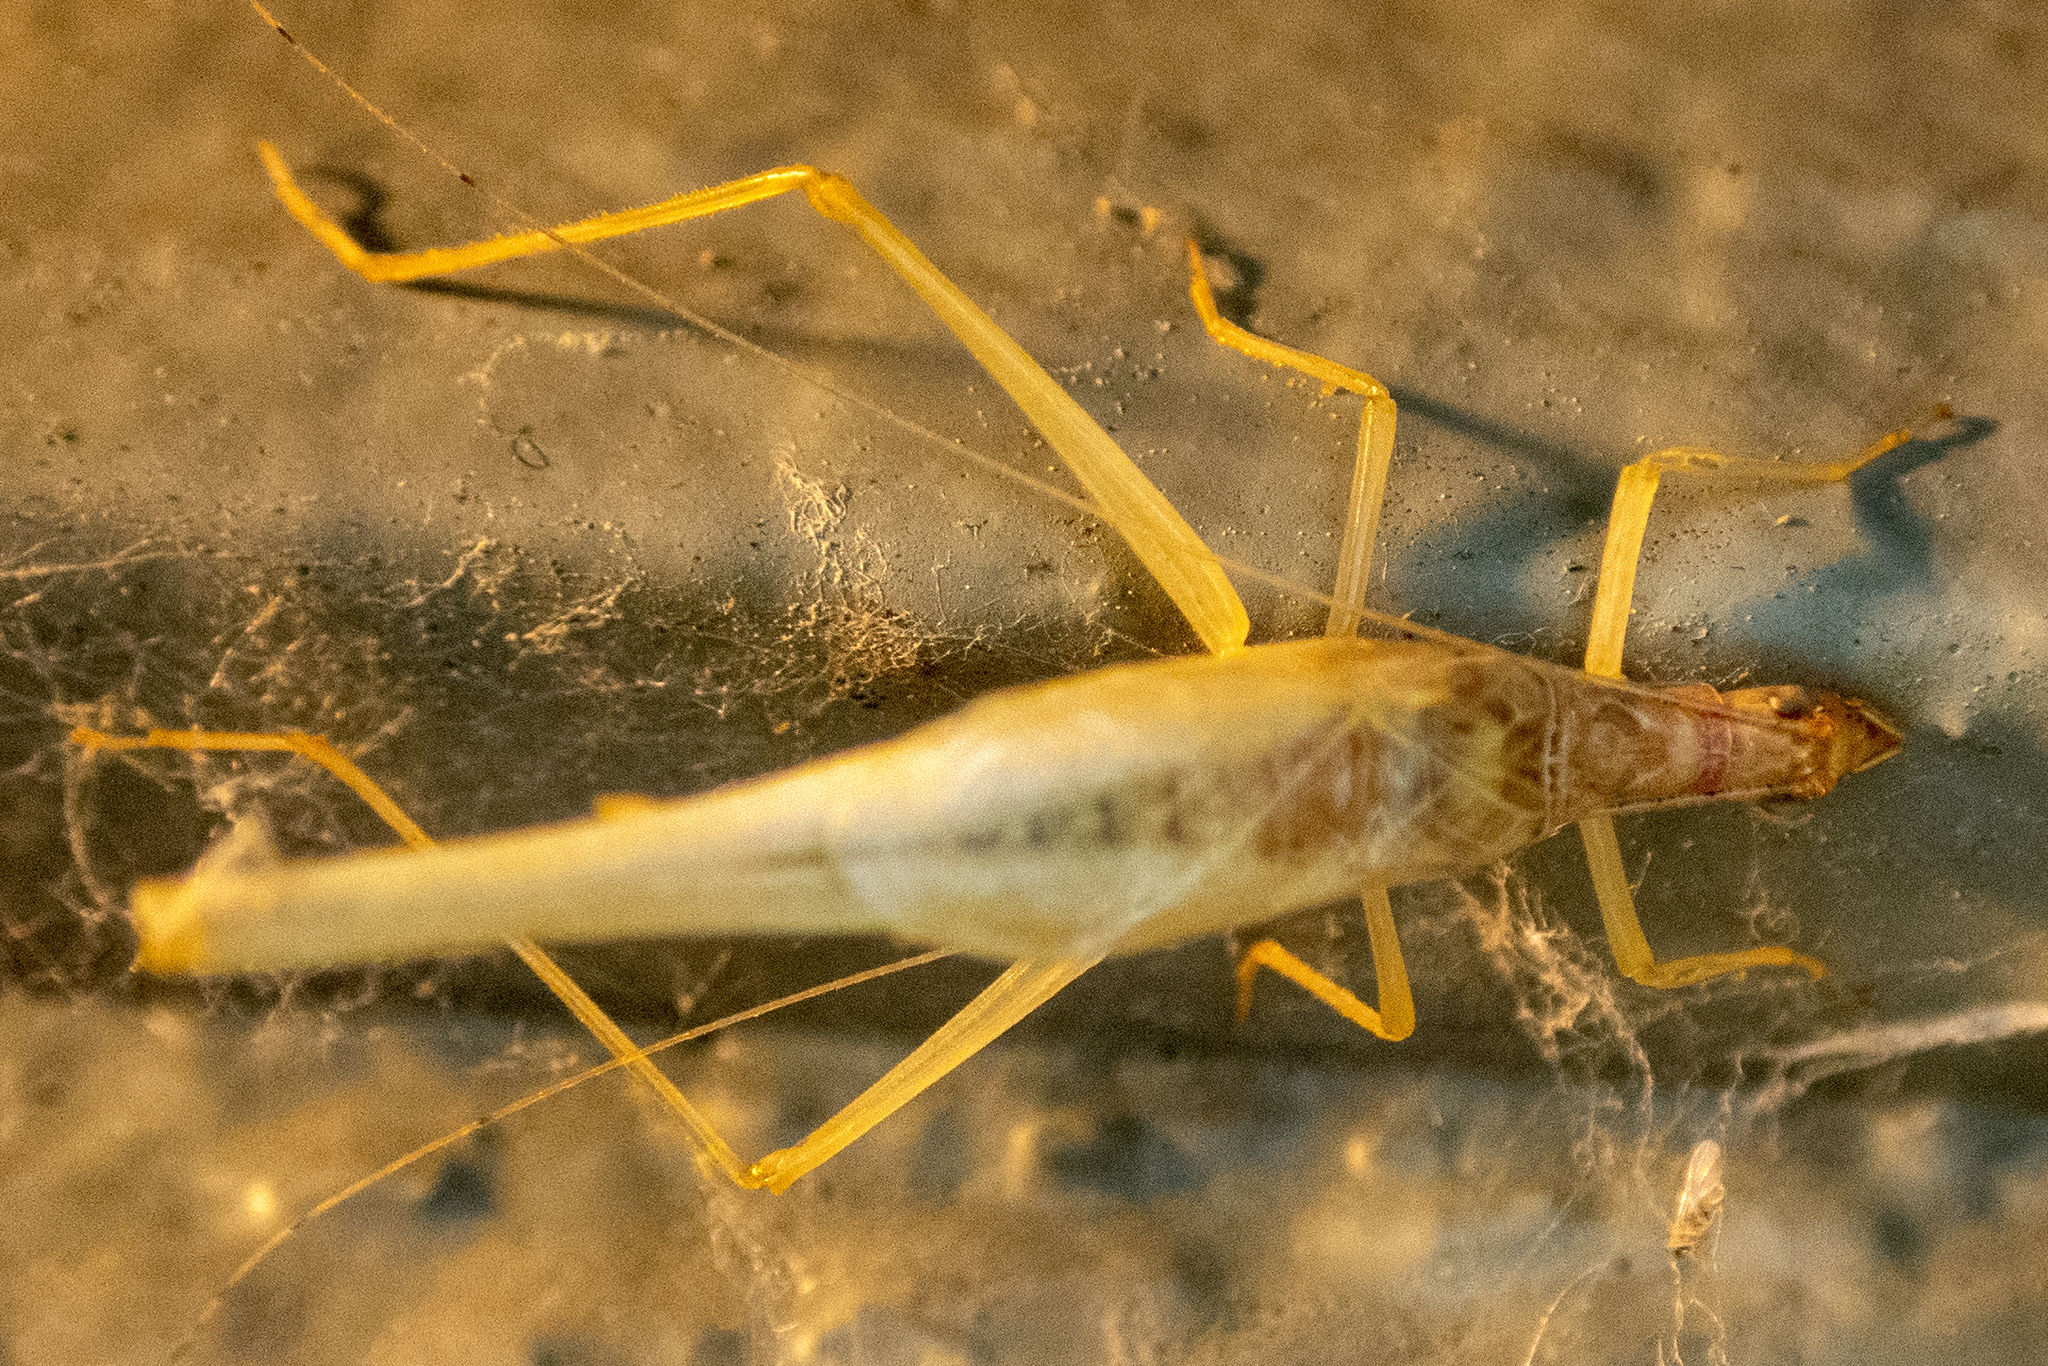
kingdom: Animalia
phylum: Arthropoda
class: Insecta
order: Orthoptera
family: Gryllidae
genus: Neoxabea
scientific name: Neoxabea bipunctata
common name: Two-spotted tree cricket
